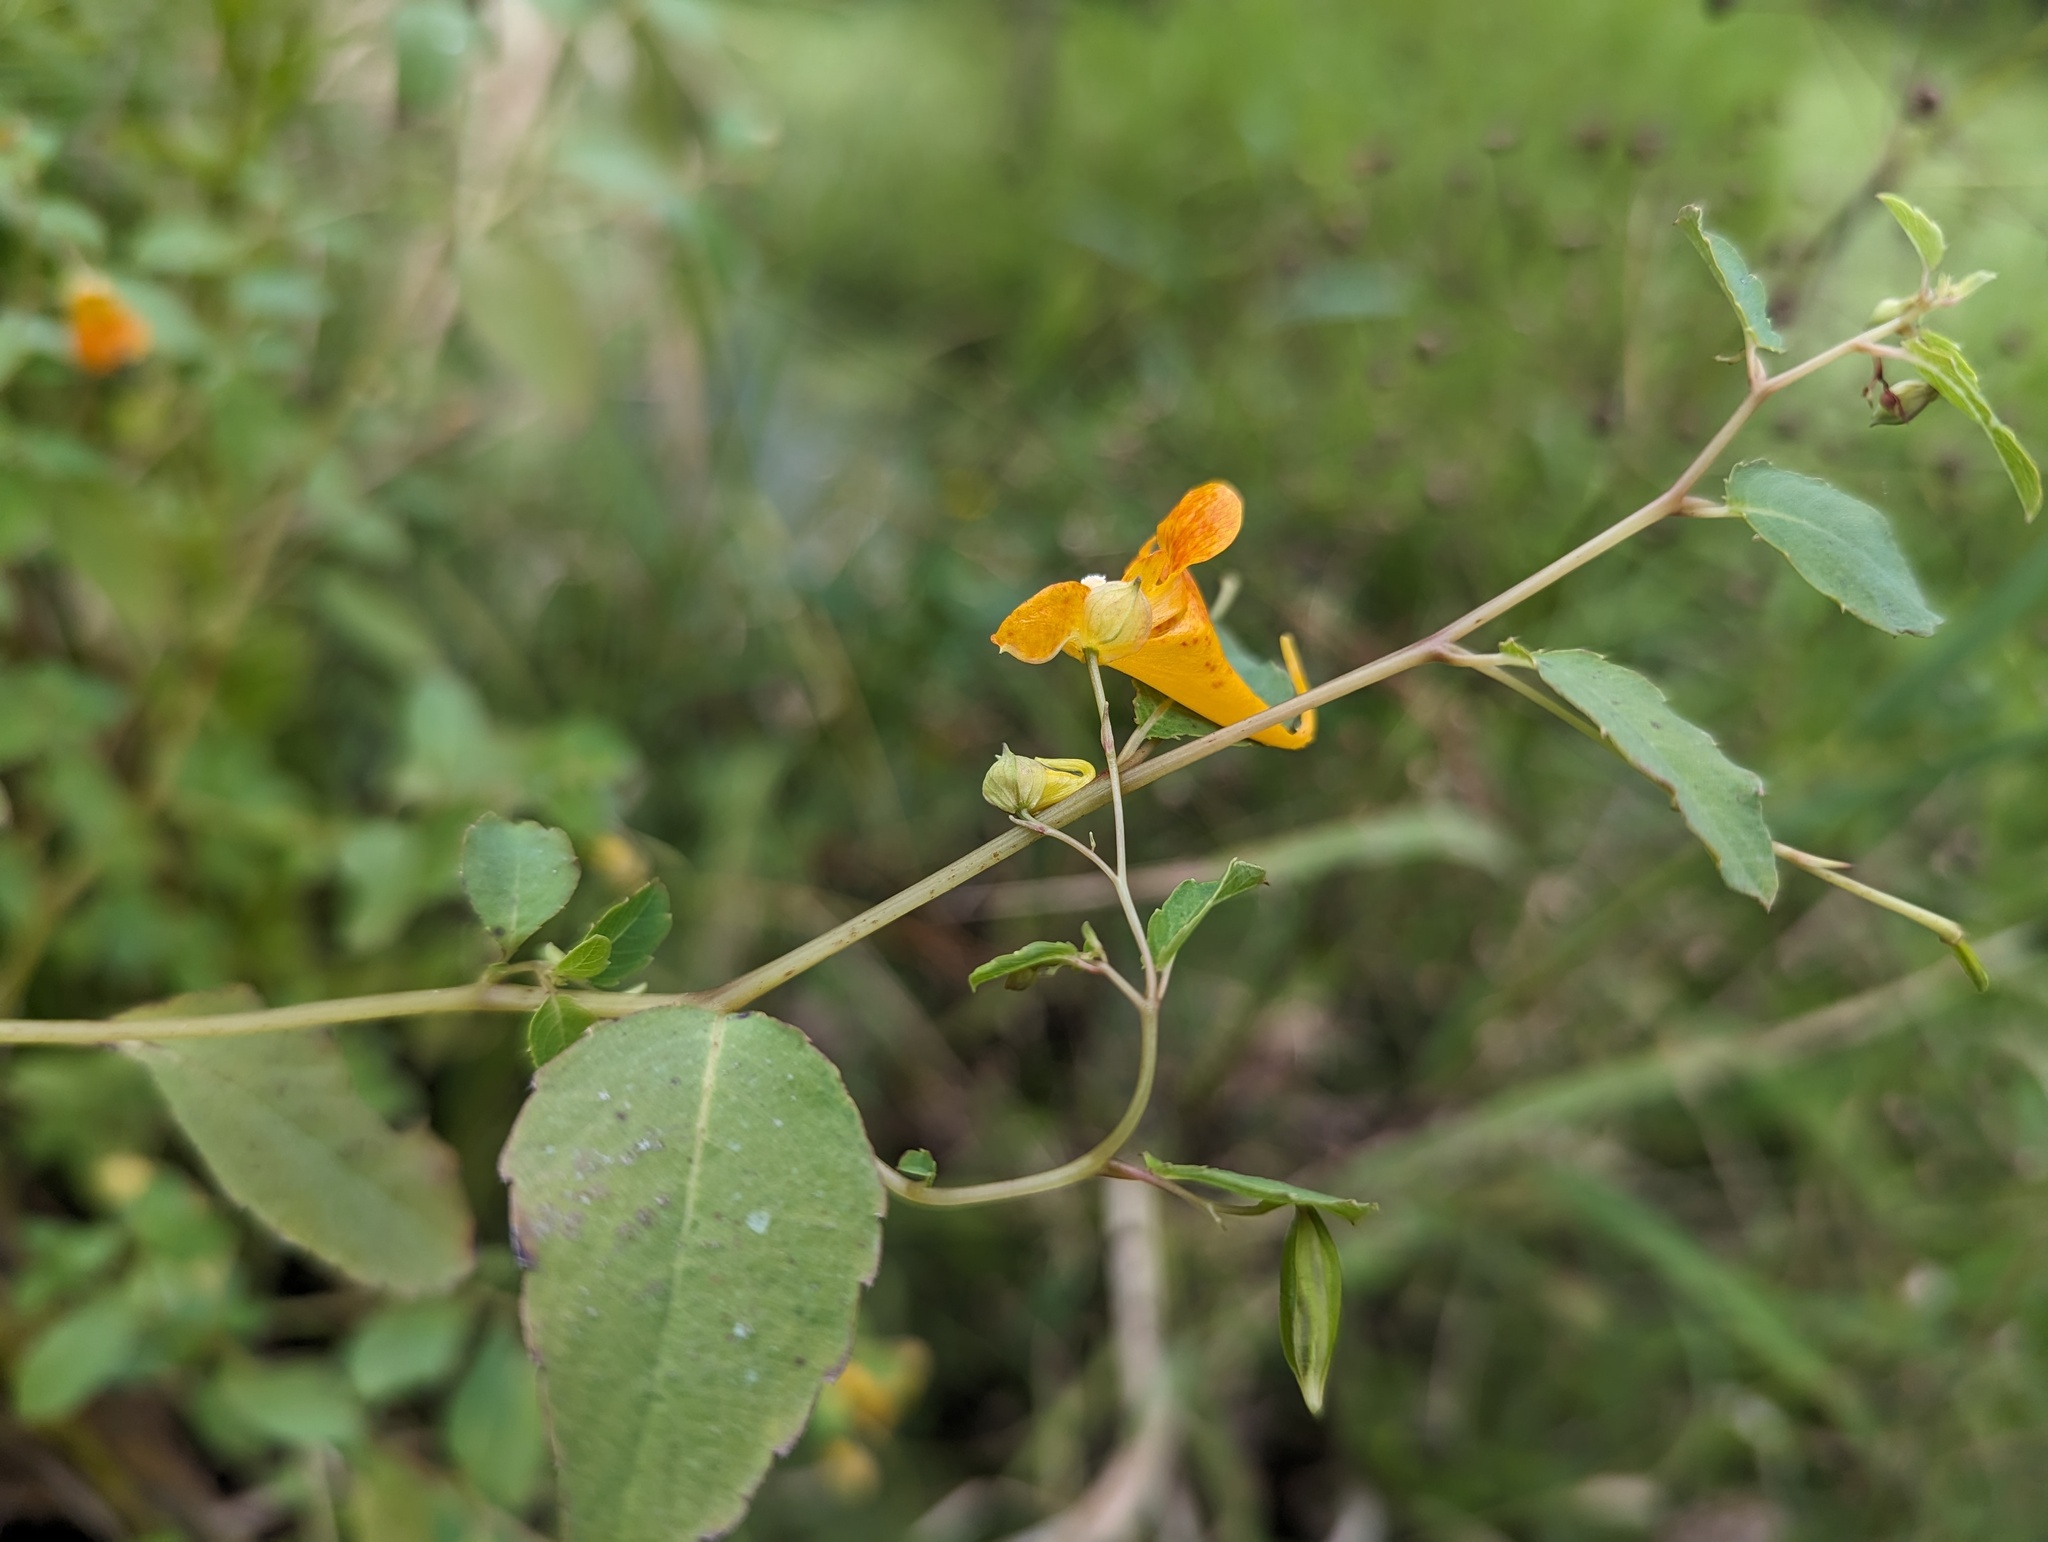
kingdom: Plantae
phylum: Tracheophyta
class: Magnoliopsida
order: Ericales
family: Balsaminaceae
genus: Impatiens
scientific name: Impatiens capensis
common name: Orange balsam
